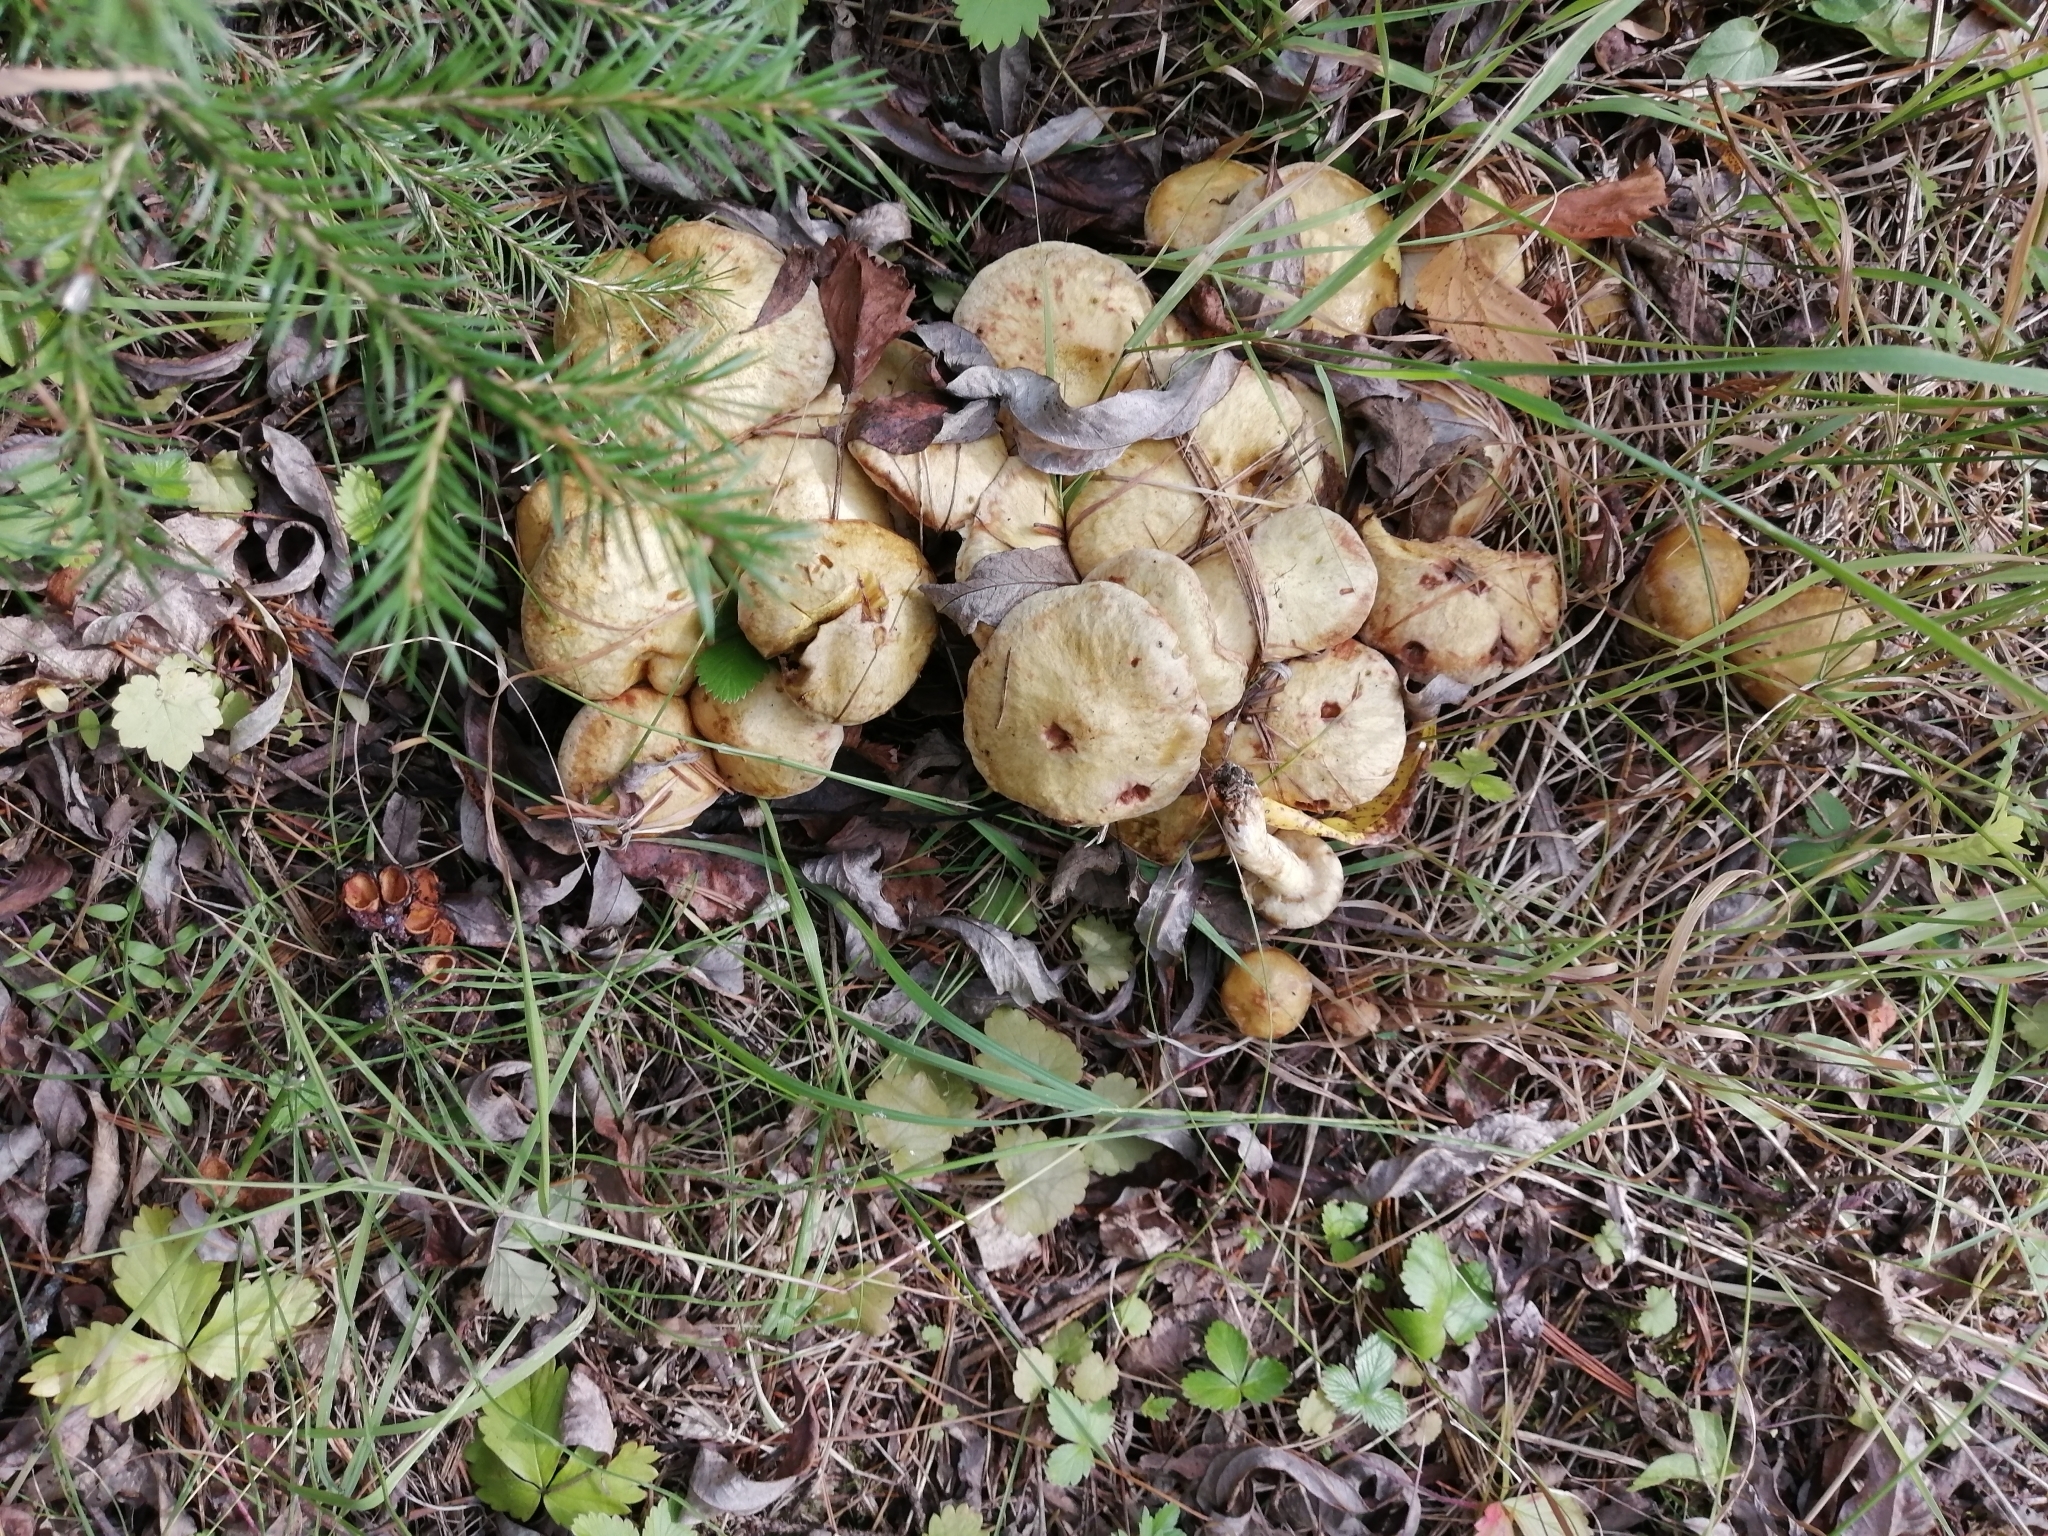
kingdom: Fungi
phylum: Basidiomycota
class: Agaricomycetes
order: Boletales
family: Suillaceae
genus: Suillus
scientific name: Suillus americanus
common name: Chicken fat mushroom
